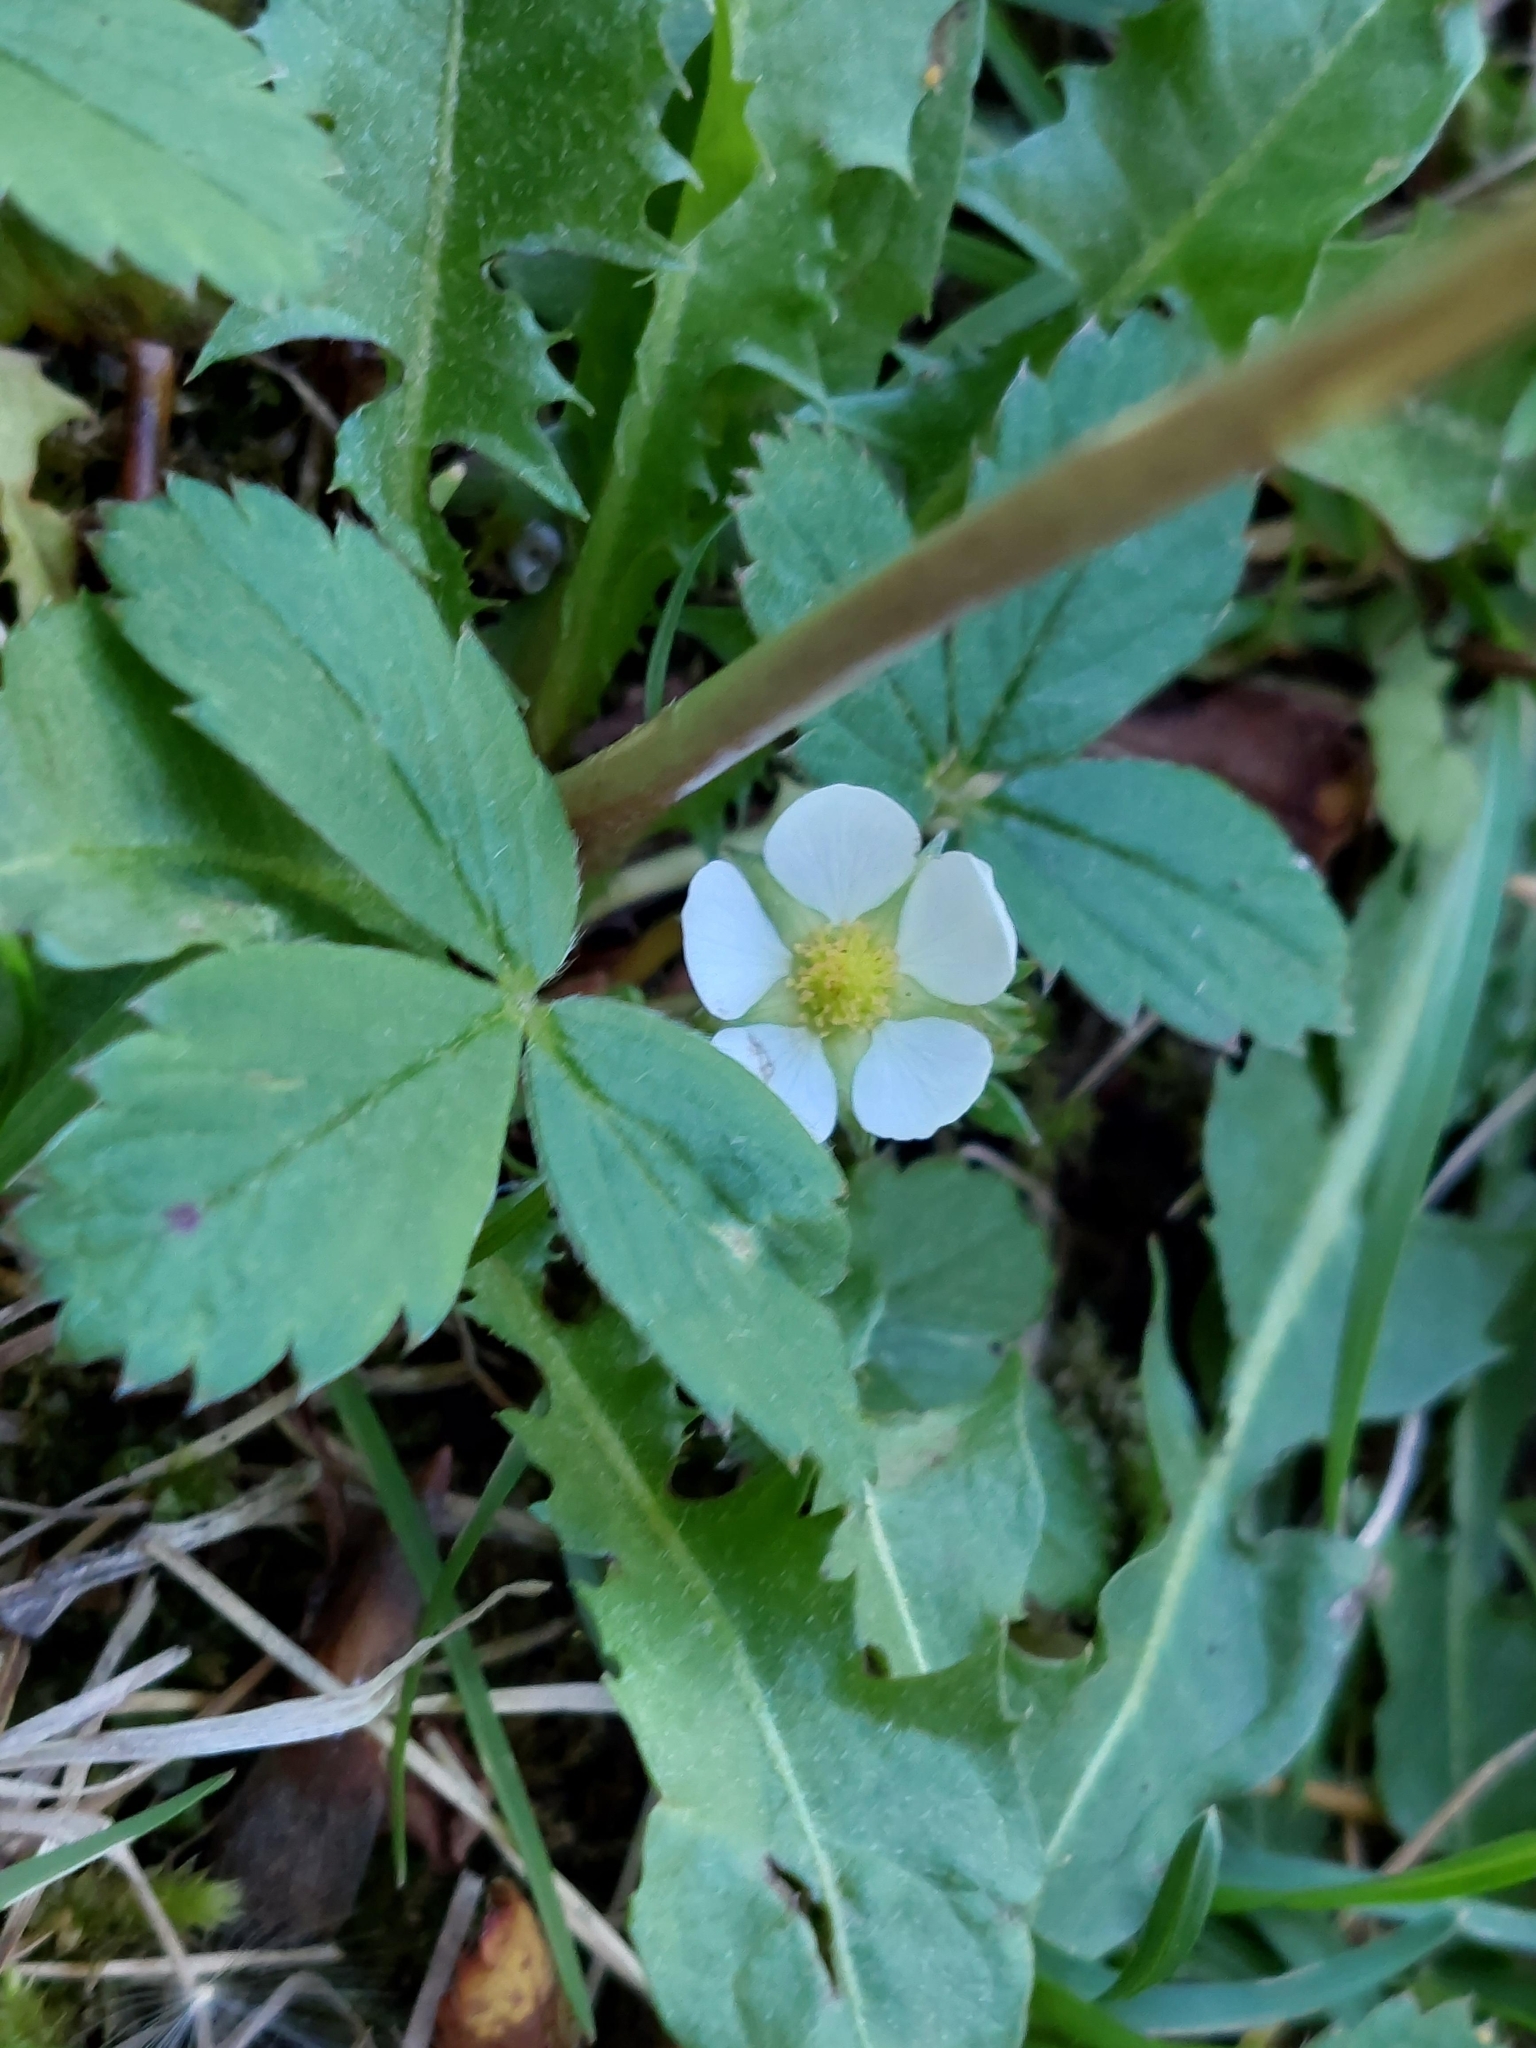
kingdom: Plantae
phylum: Tracheophyta
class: Magnoliopsida
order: Rosales
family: Rosaceae
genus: Fragaria
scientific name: Fragaria virginiana
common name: Thickleaved wild strawberry
